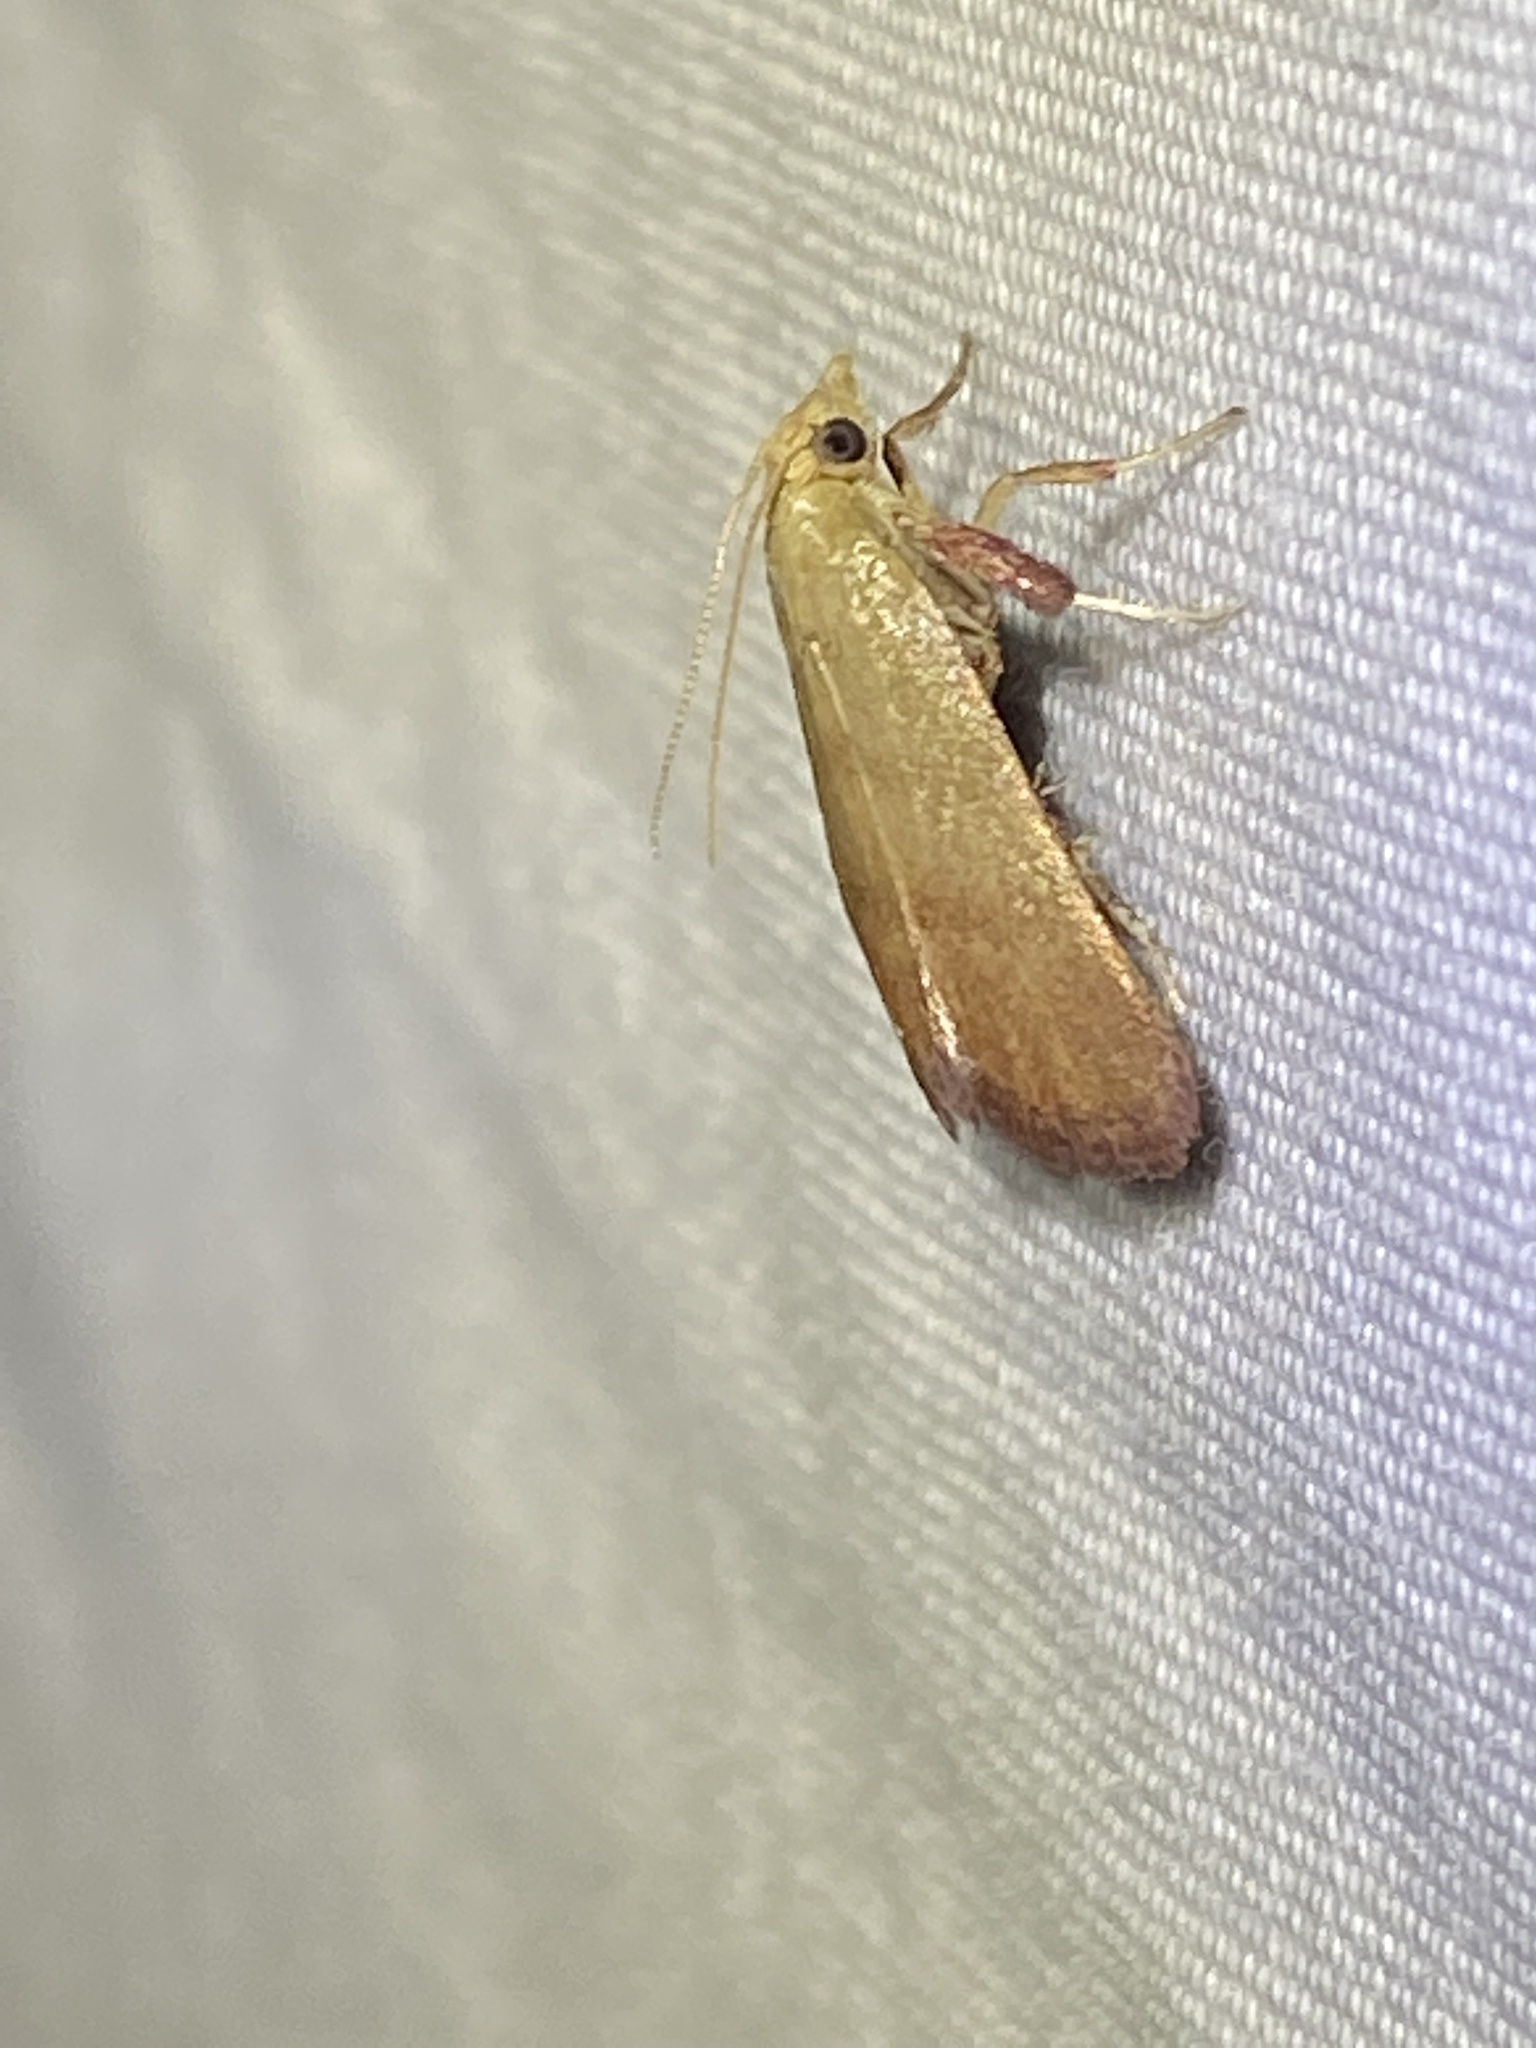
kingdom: Animalia
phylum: Arthropoda
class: Insecta
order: Lepidoptera
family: Pyralidae
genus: Condylolomia
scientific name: Condylolomia participialis
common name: Drab condylolomia moth
